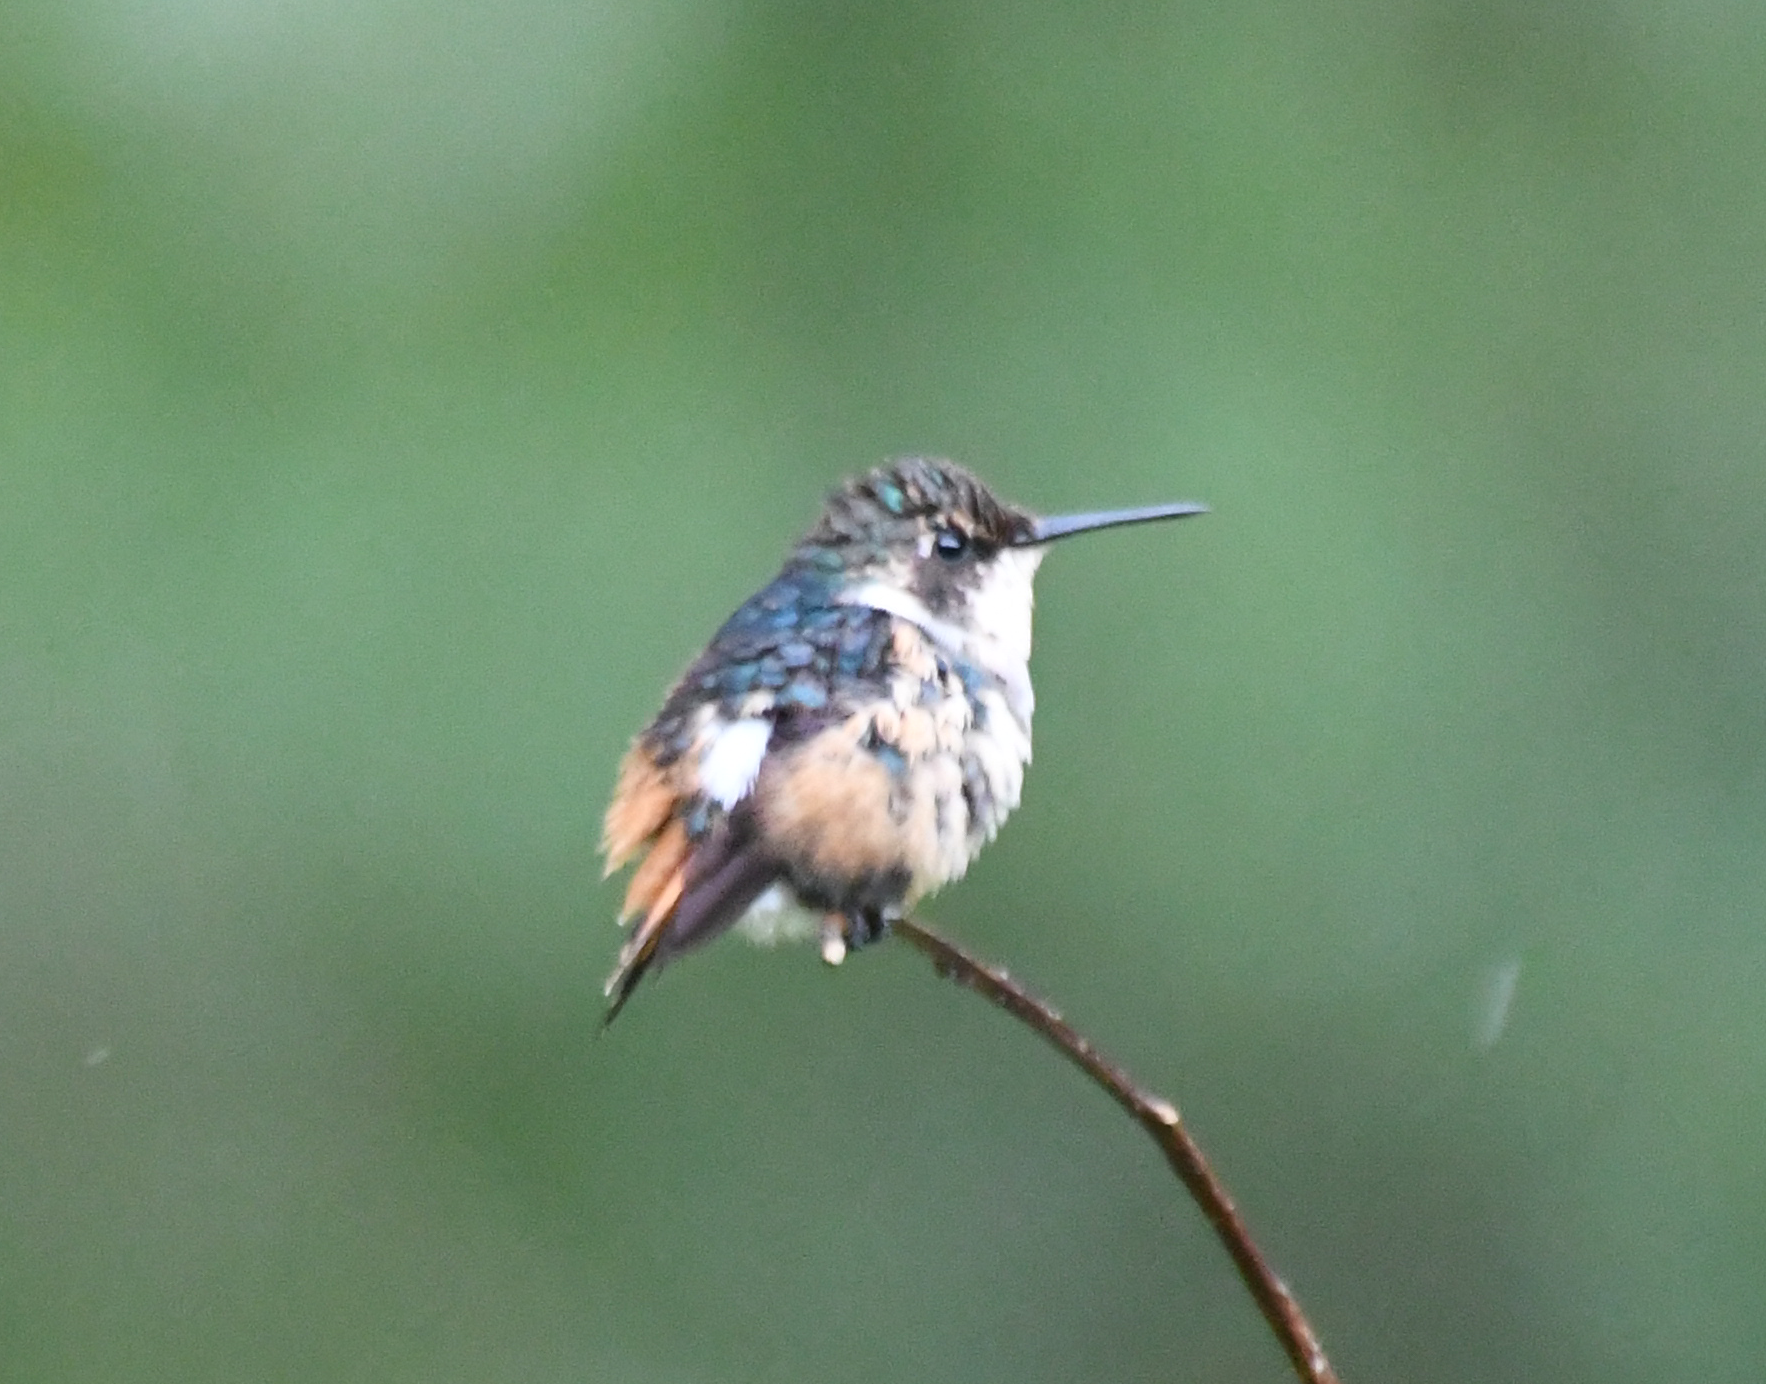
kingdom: Animalia
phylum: Chordata
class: Aves
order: Apodiformes
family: Trochilidae
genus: Chaetocercus
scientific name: Chaetocercus heliodor
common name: Gorgeted woodstar
